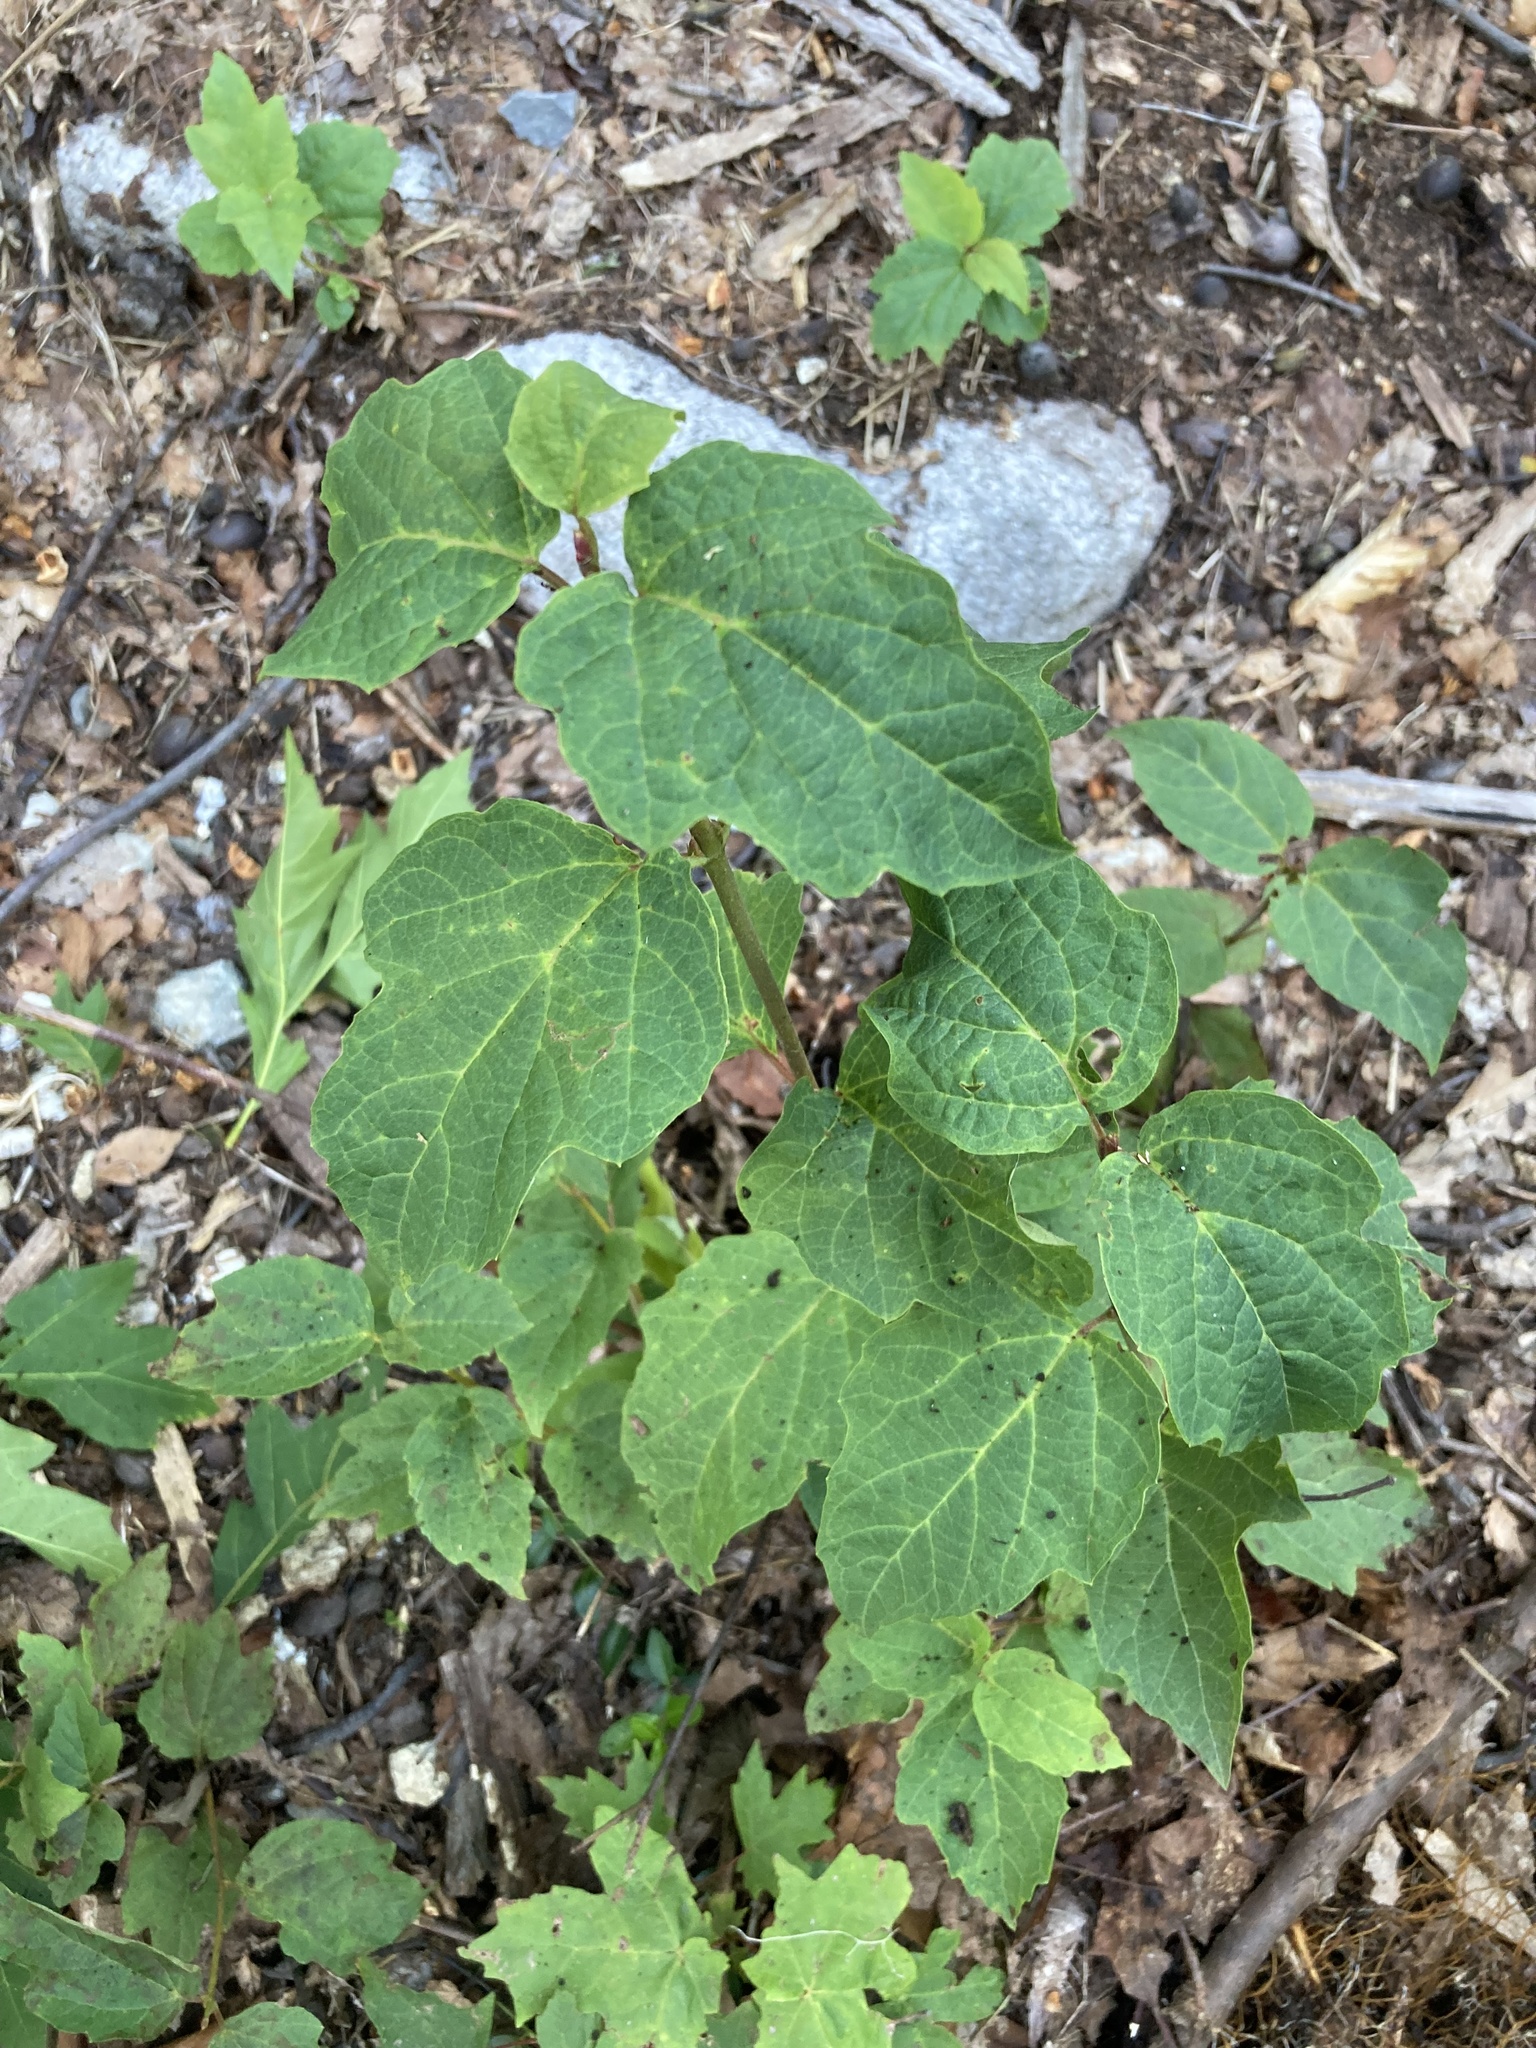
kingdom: Plantae
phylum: Tracheophyta
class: Magnoliopsida
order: Dipsacales
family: Viburnaceae
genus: Viburnum
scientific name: Viburnum acerifolium
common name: Dockmackie
